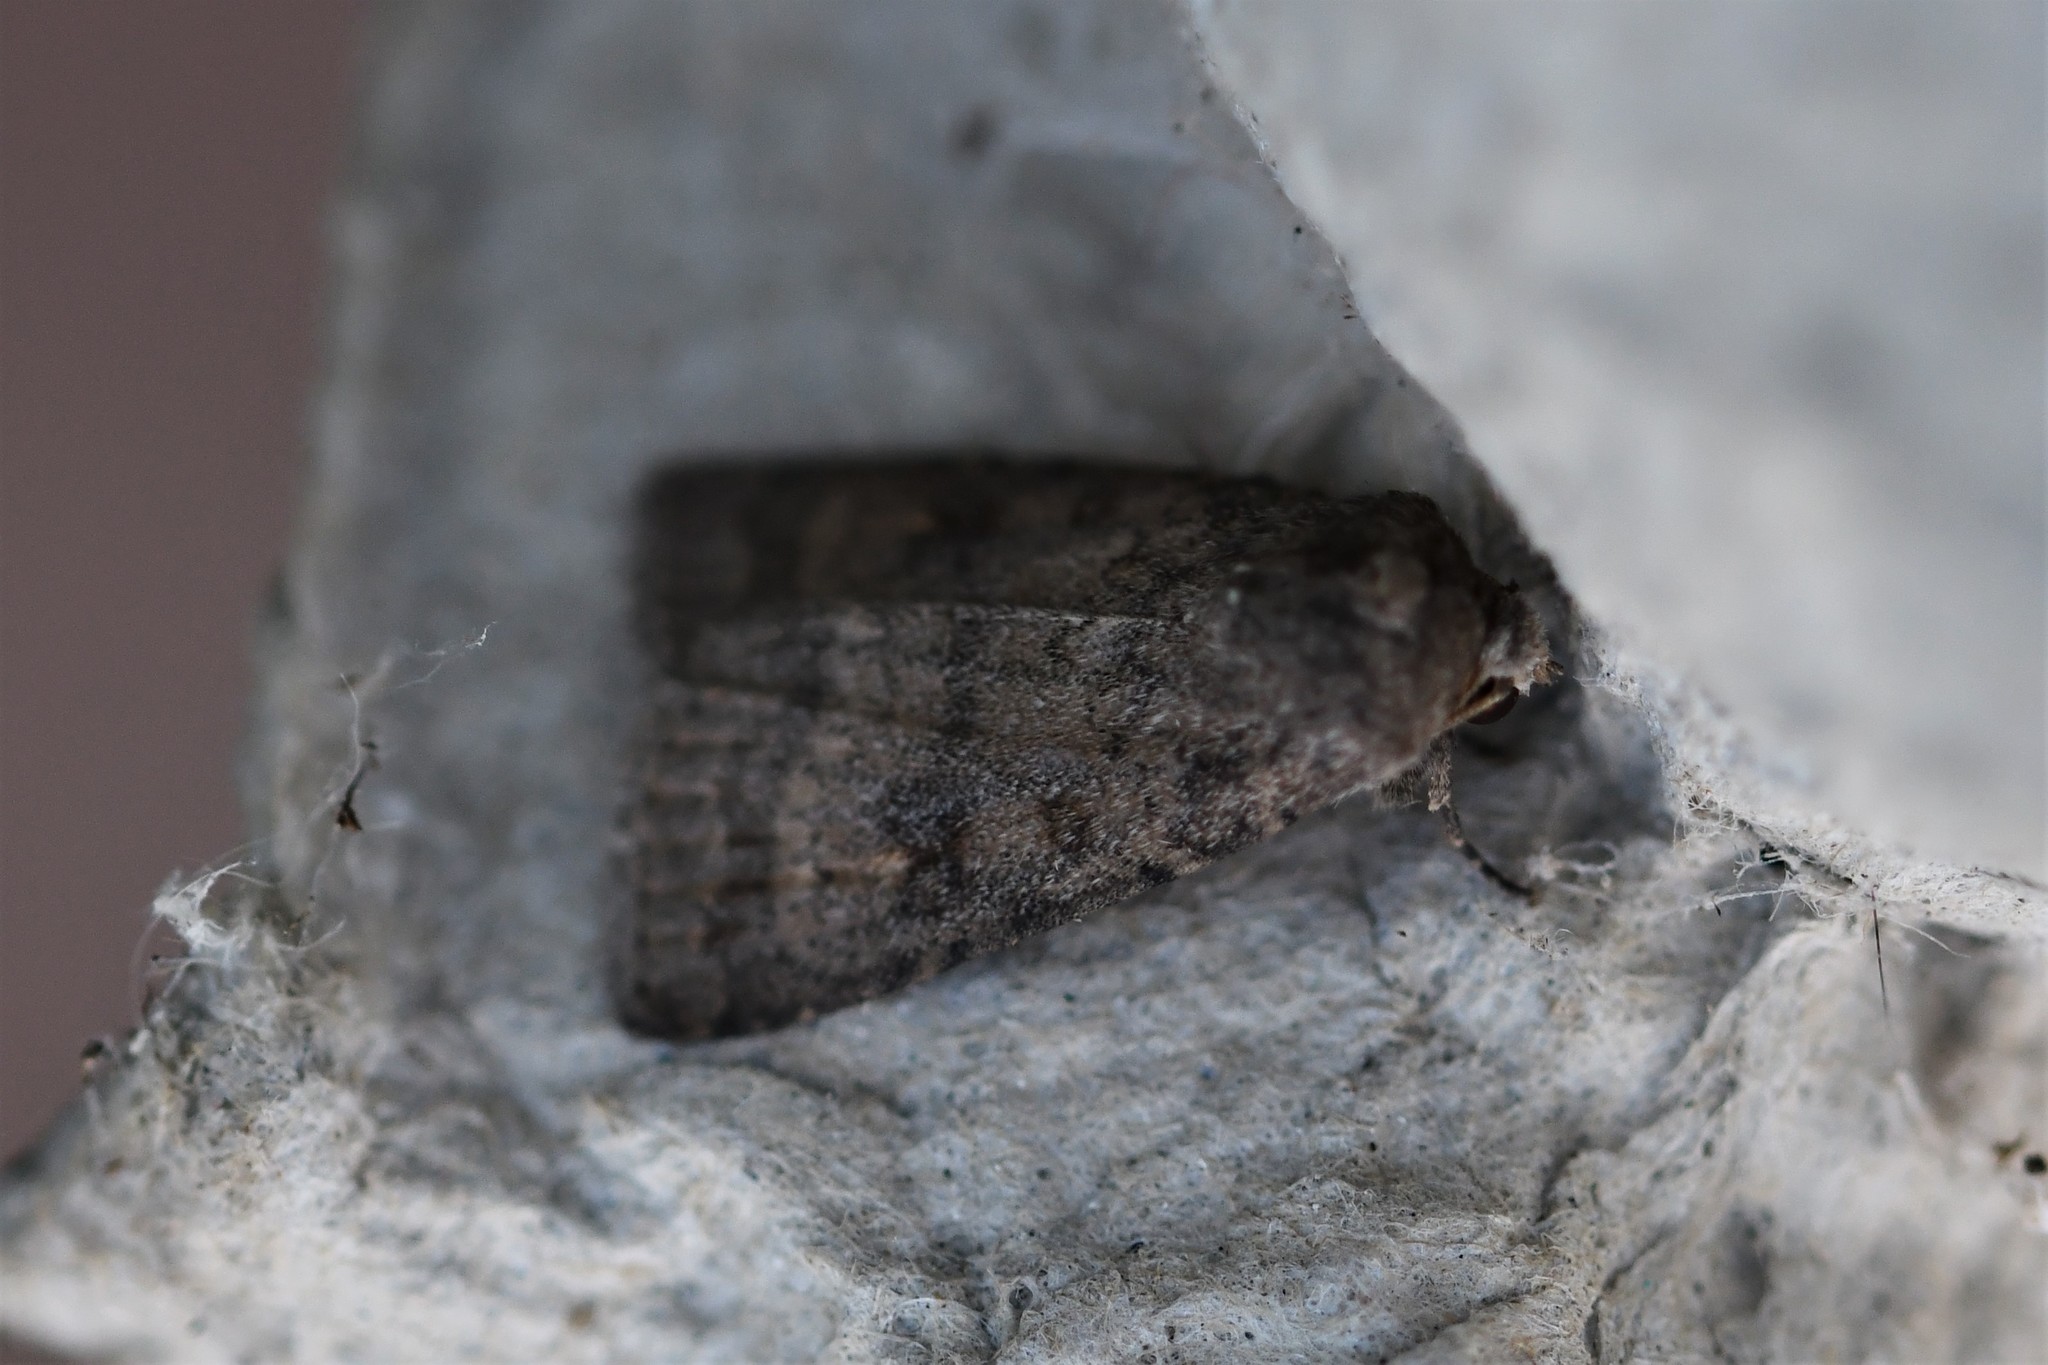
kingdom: Animalia
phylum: Arthropoda
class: Insecta
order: Lepidoptera
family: Noctuidae
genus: Caradrina
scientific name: Caradrina morpheus
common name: Mottled rustic
